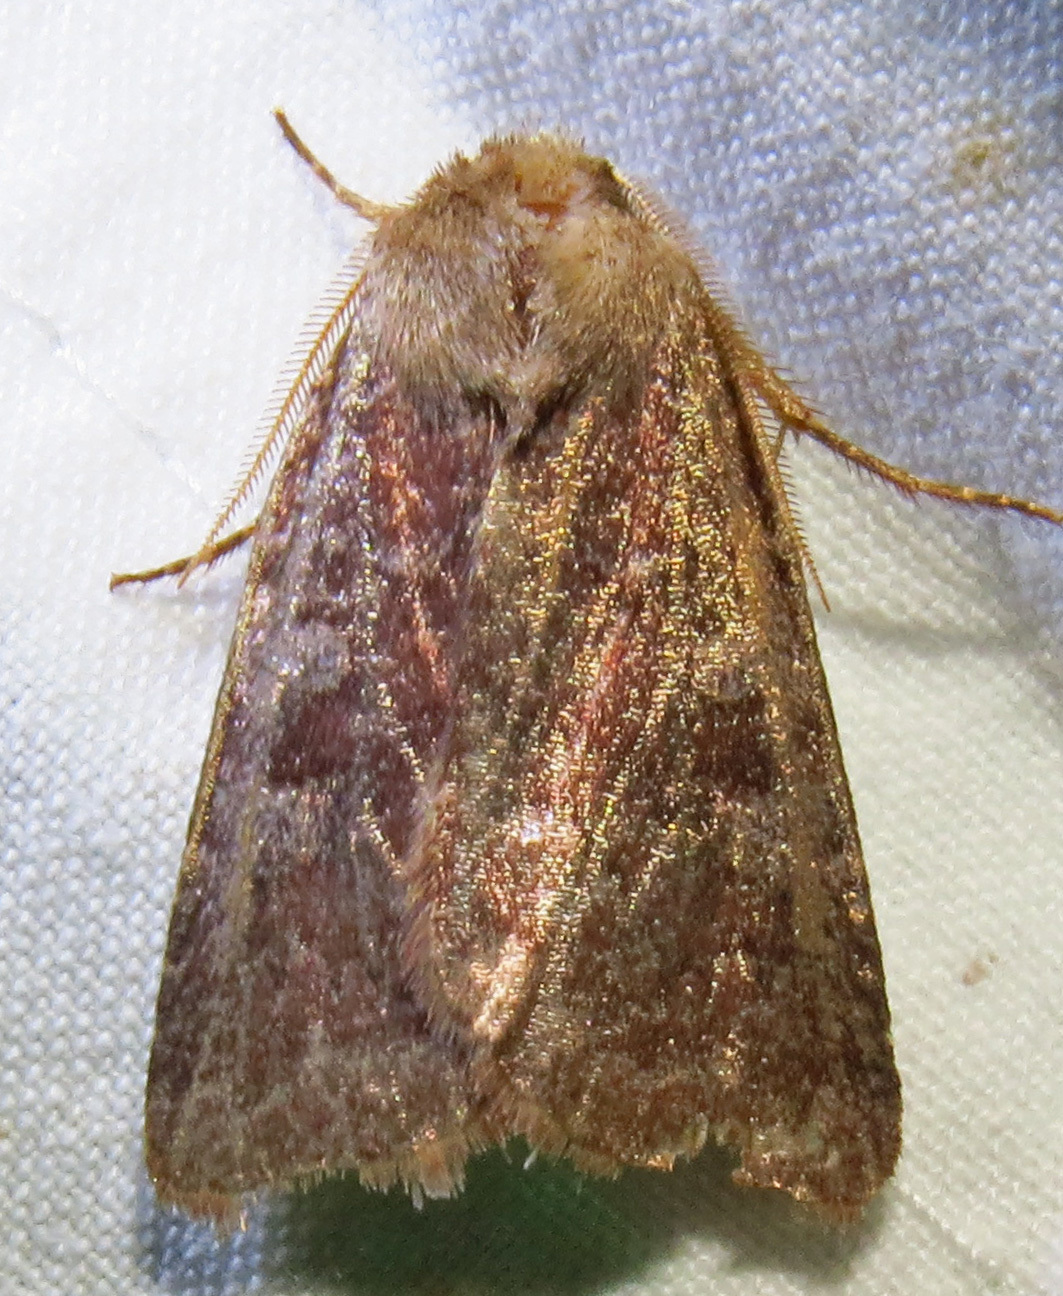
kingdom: Animalia
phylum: Arthropoda
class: Insecta
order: Lepidoptera
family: Noctuidae
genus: Cerastis
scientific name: Cerastis tenebrifera
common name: Reddish speckled dart
